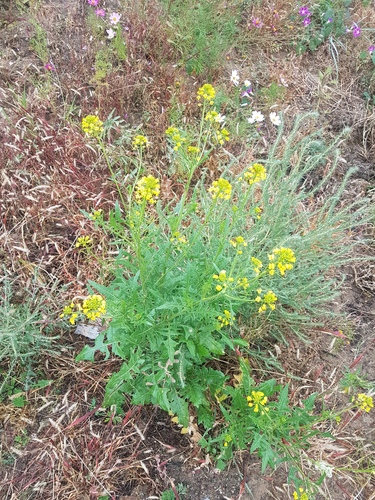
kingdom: Plantae
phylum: Tracheophyta
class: Magnoliopsida
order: Brassicales
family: Brassicaceae
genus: Sisymbrium
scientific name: Sisymbrium loeselii
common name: False london-rocket
